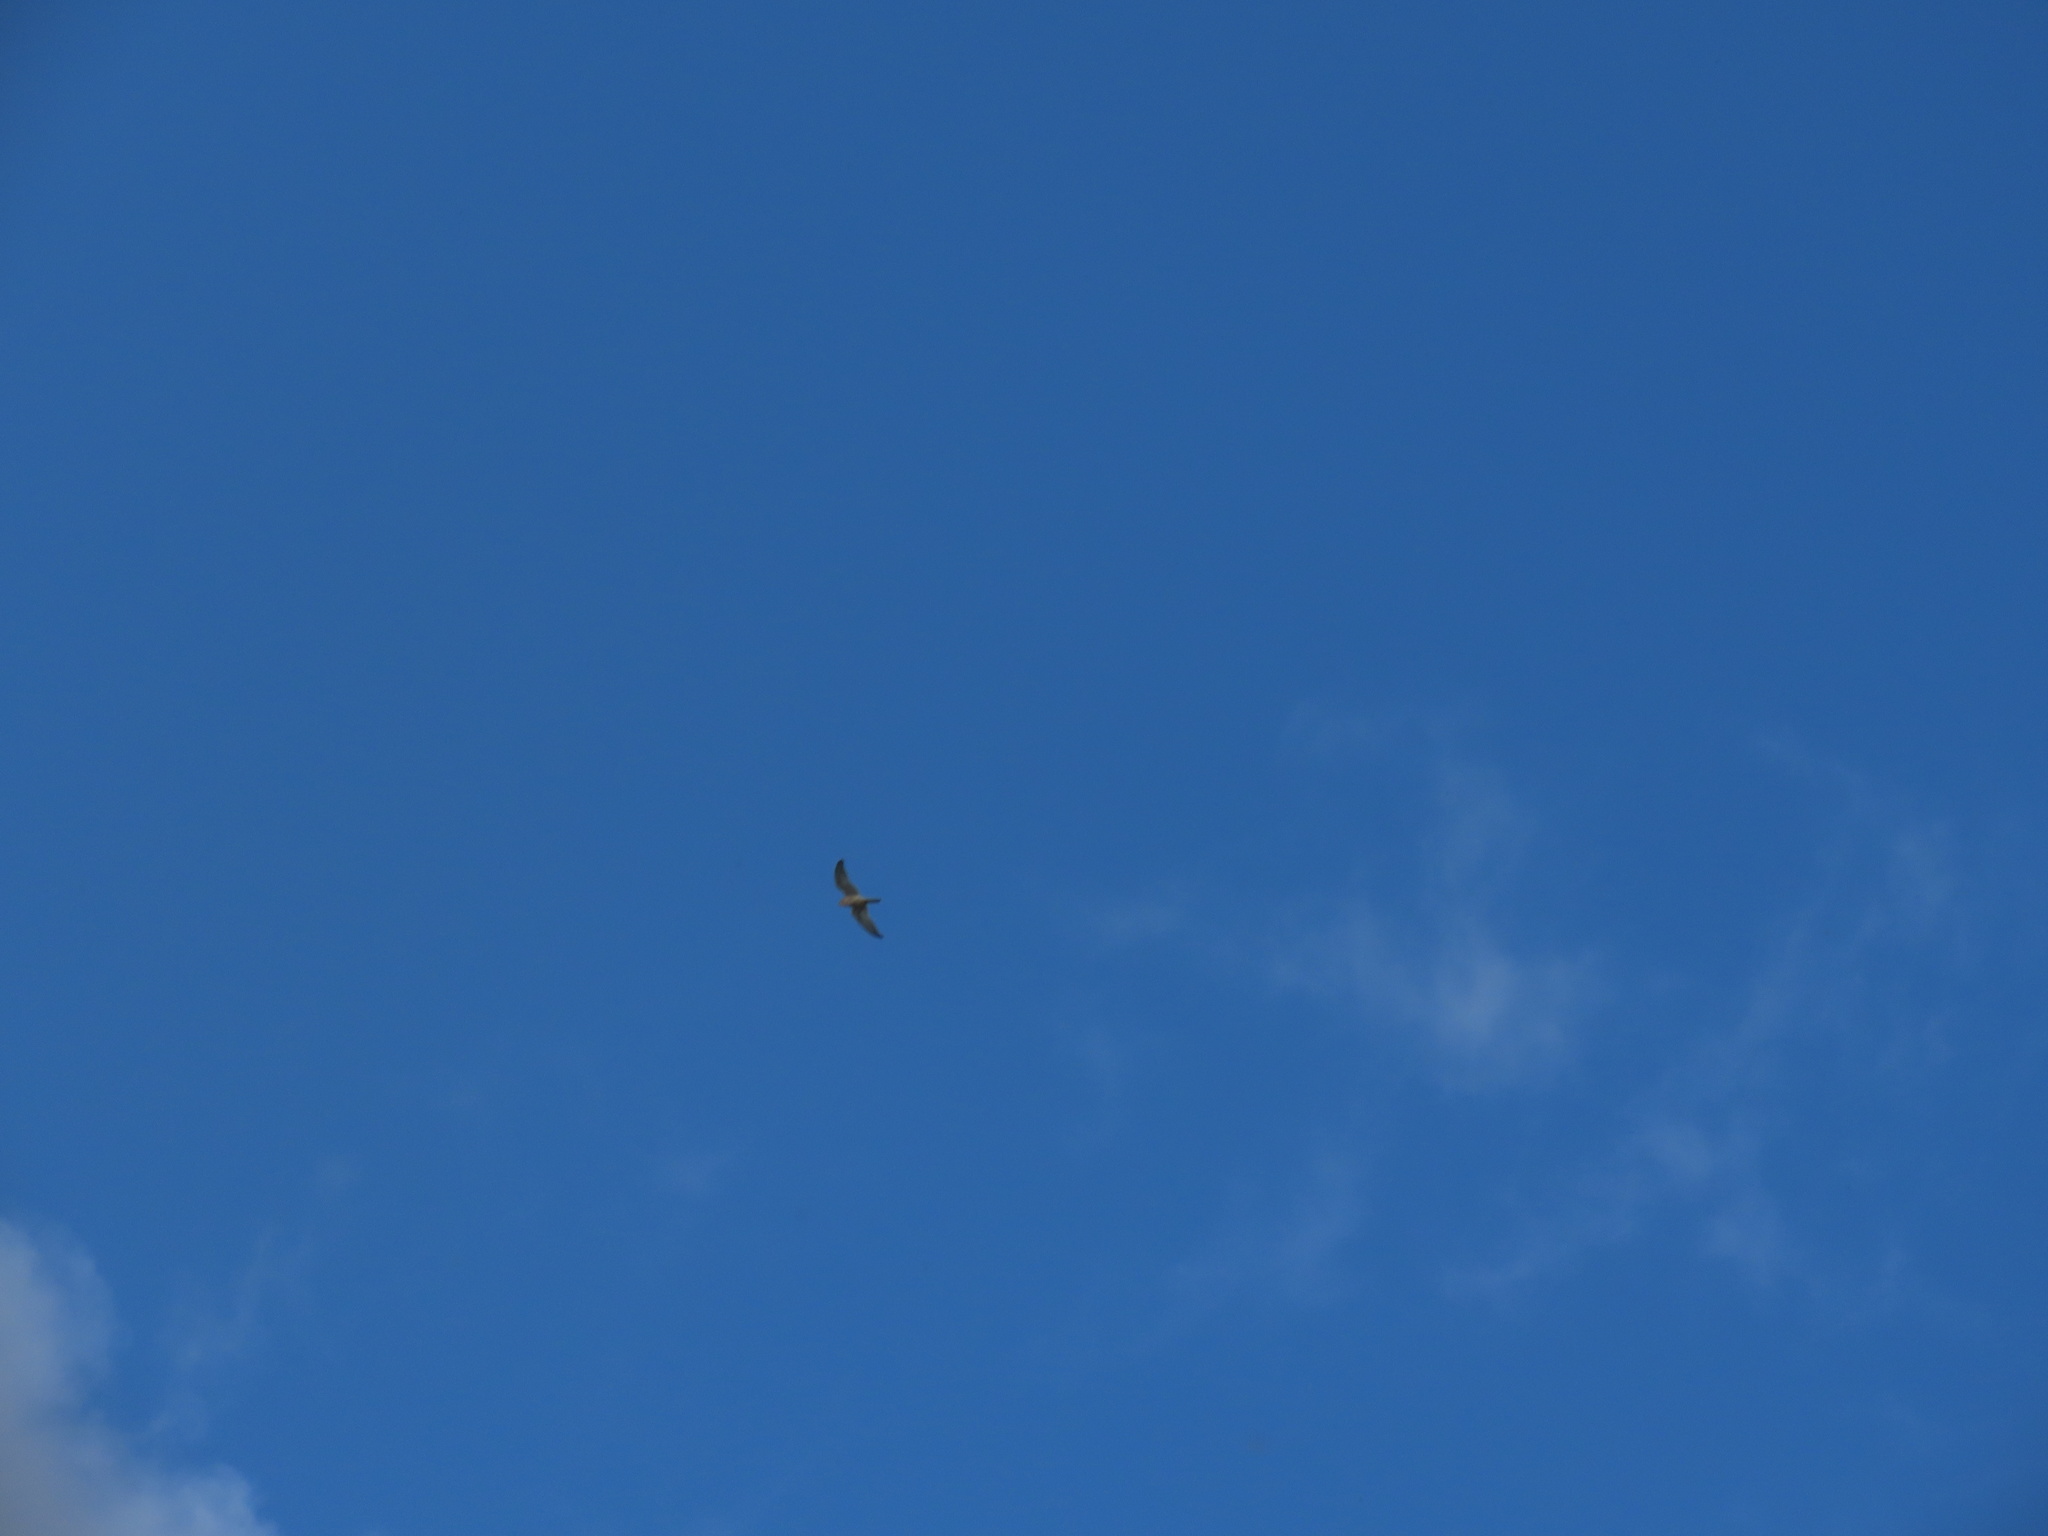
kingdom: Animalia
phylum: Chordata
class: Aves
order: Falconiformes
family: Falconidae
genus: Falco
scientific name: Falco tinnunculus
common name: Common kestrel
